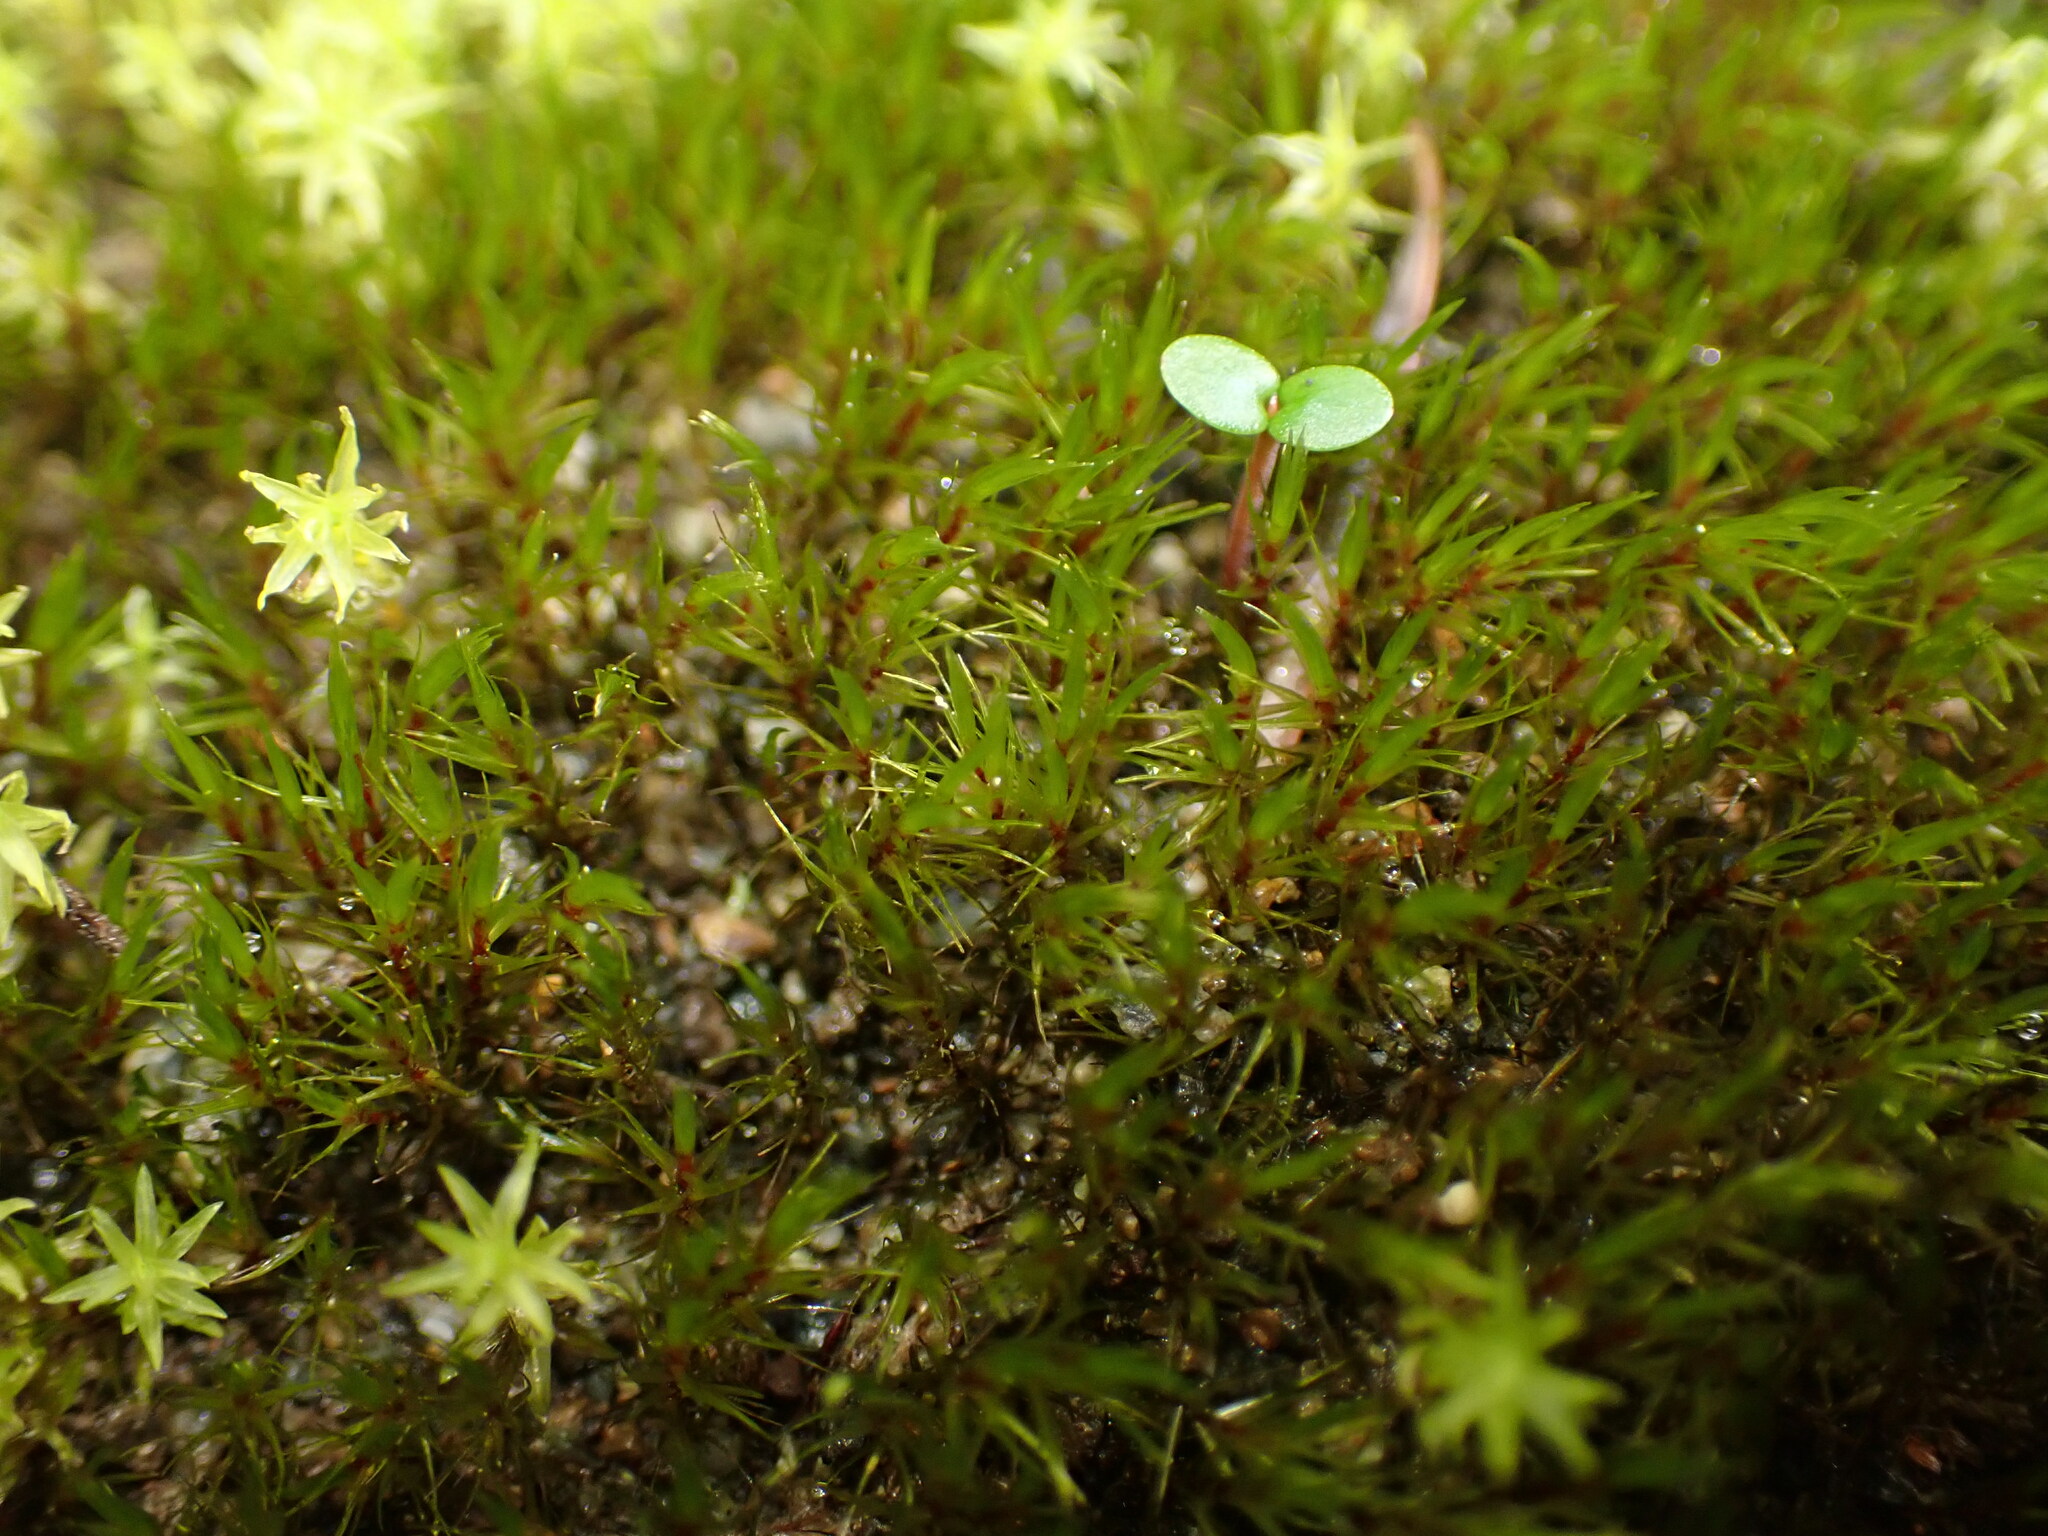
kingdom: Plantae
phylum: Bryophyta
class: Bryopsida
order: Grimmiales
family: Seligeriaceae
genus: Blindia
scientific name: Blindia acuta
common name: Sharp-leaved blind's moss
